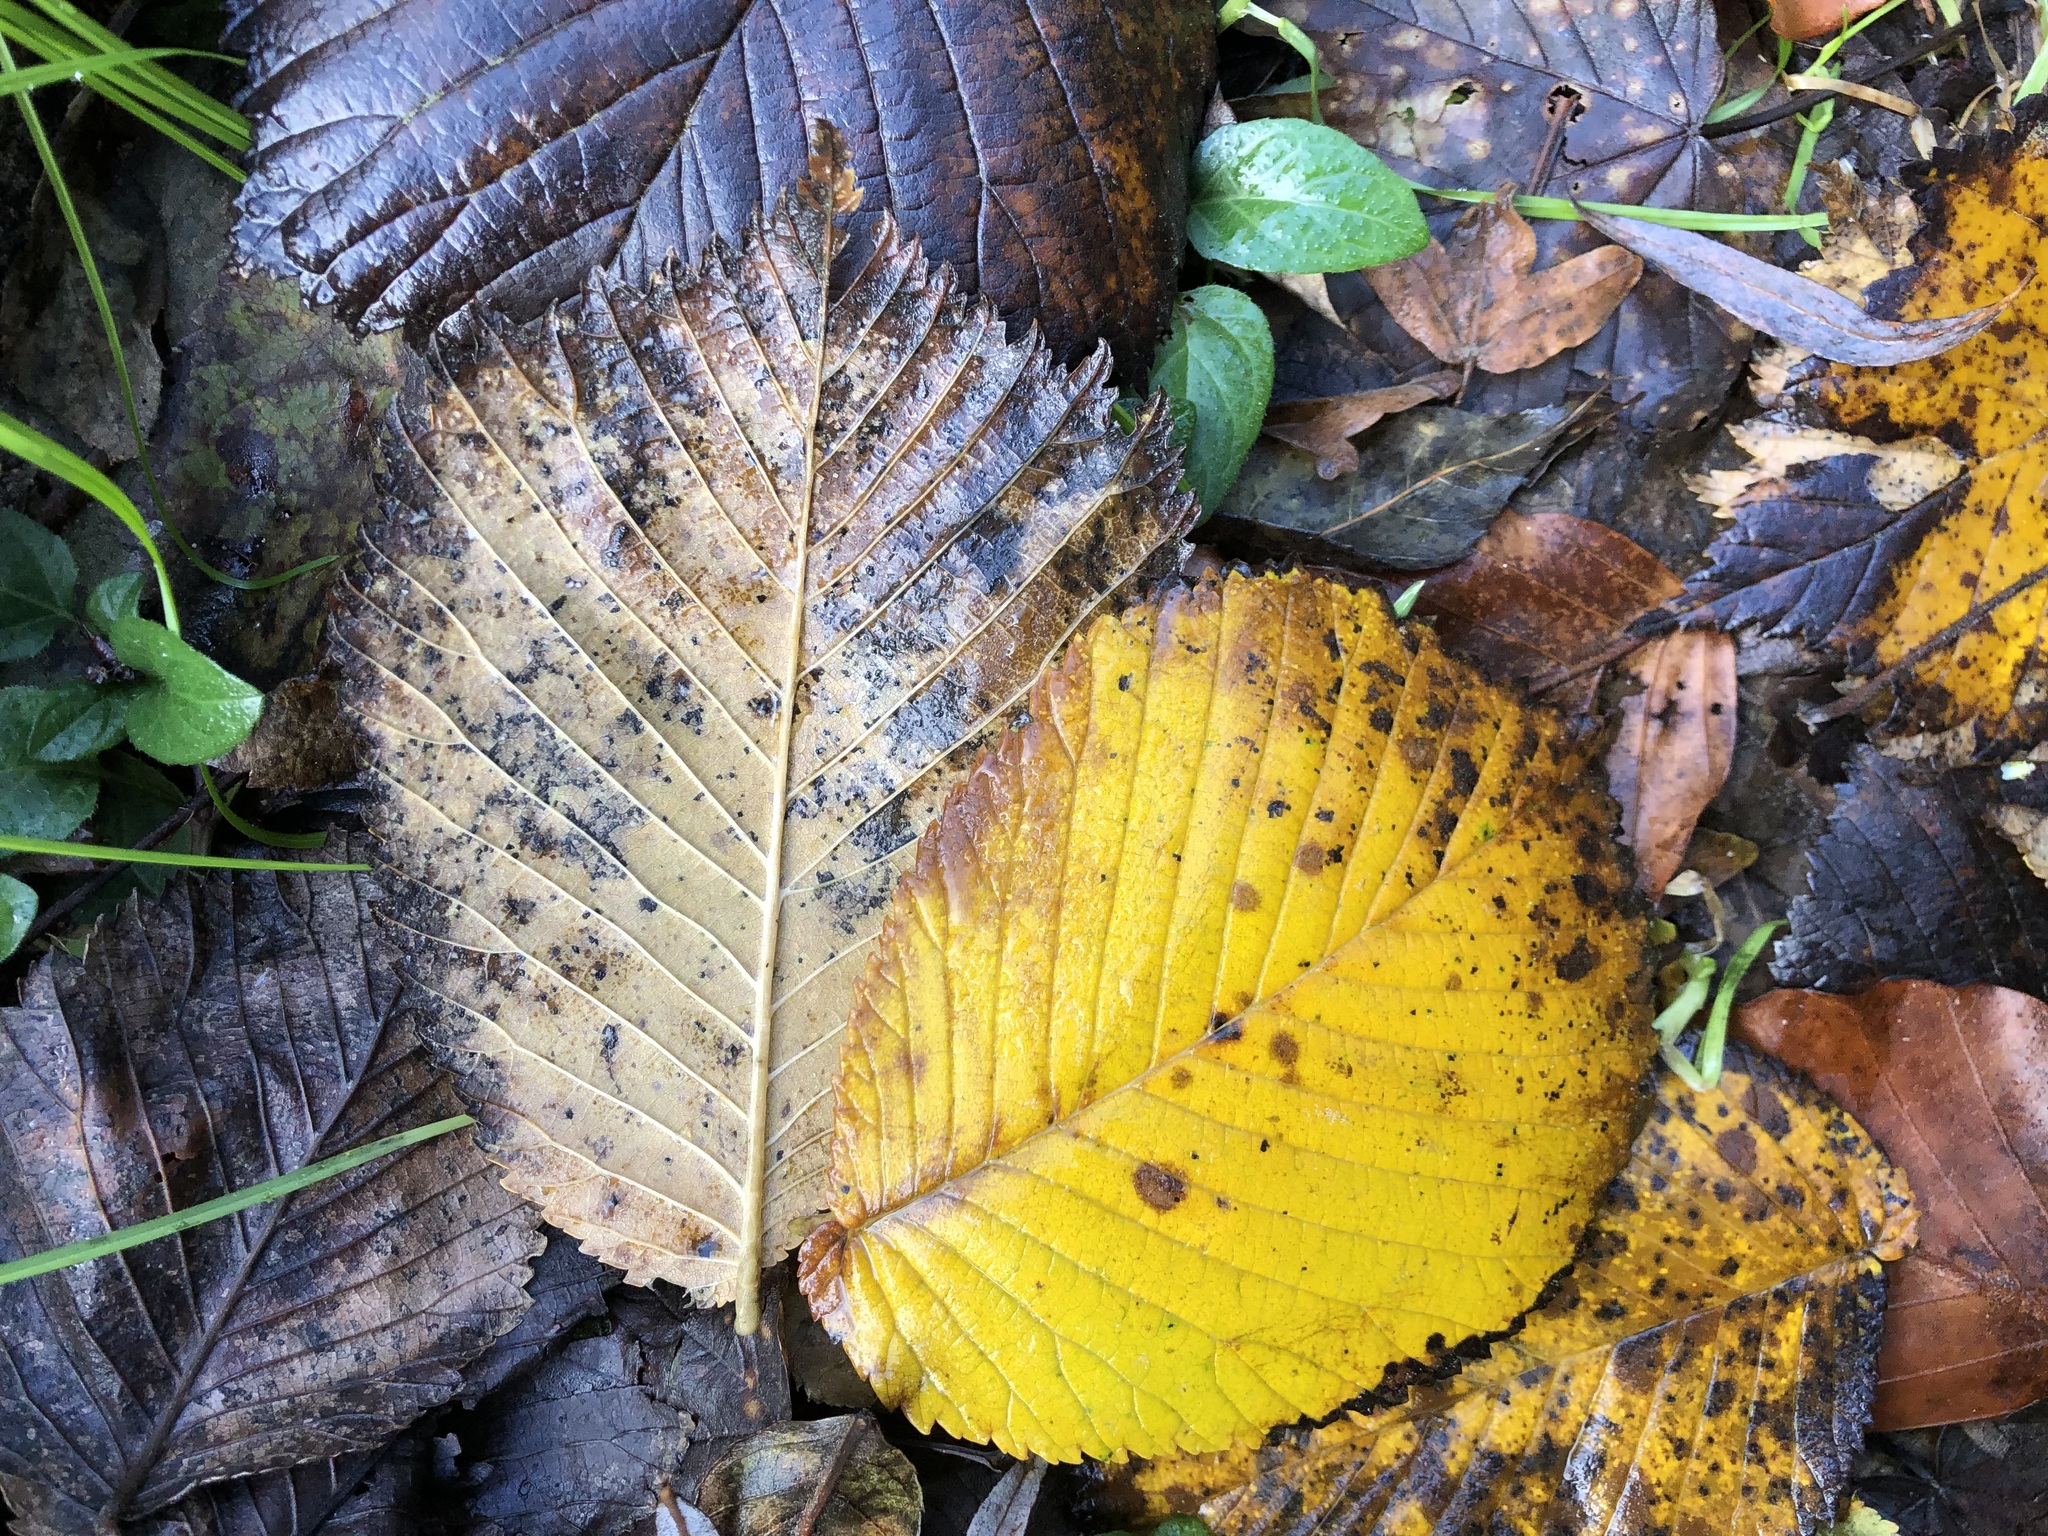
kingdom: Plantae
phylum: Tracheophyta
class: Magnoliopsida
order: Rosales
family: Ulmaceae
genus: Ulmus
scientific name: Ulmus glabra
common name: Wych elm
